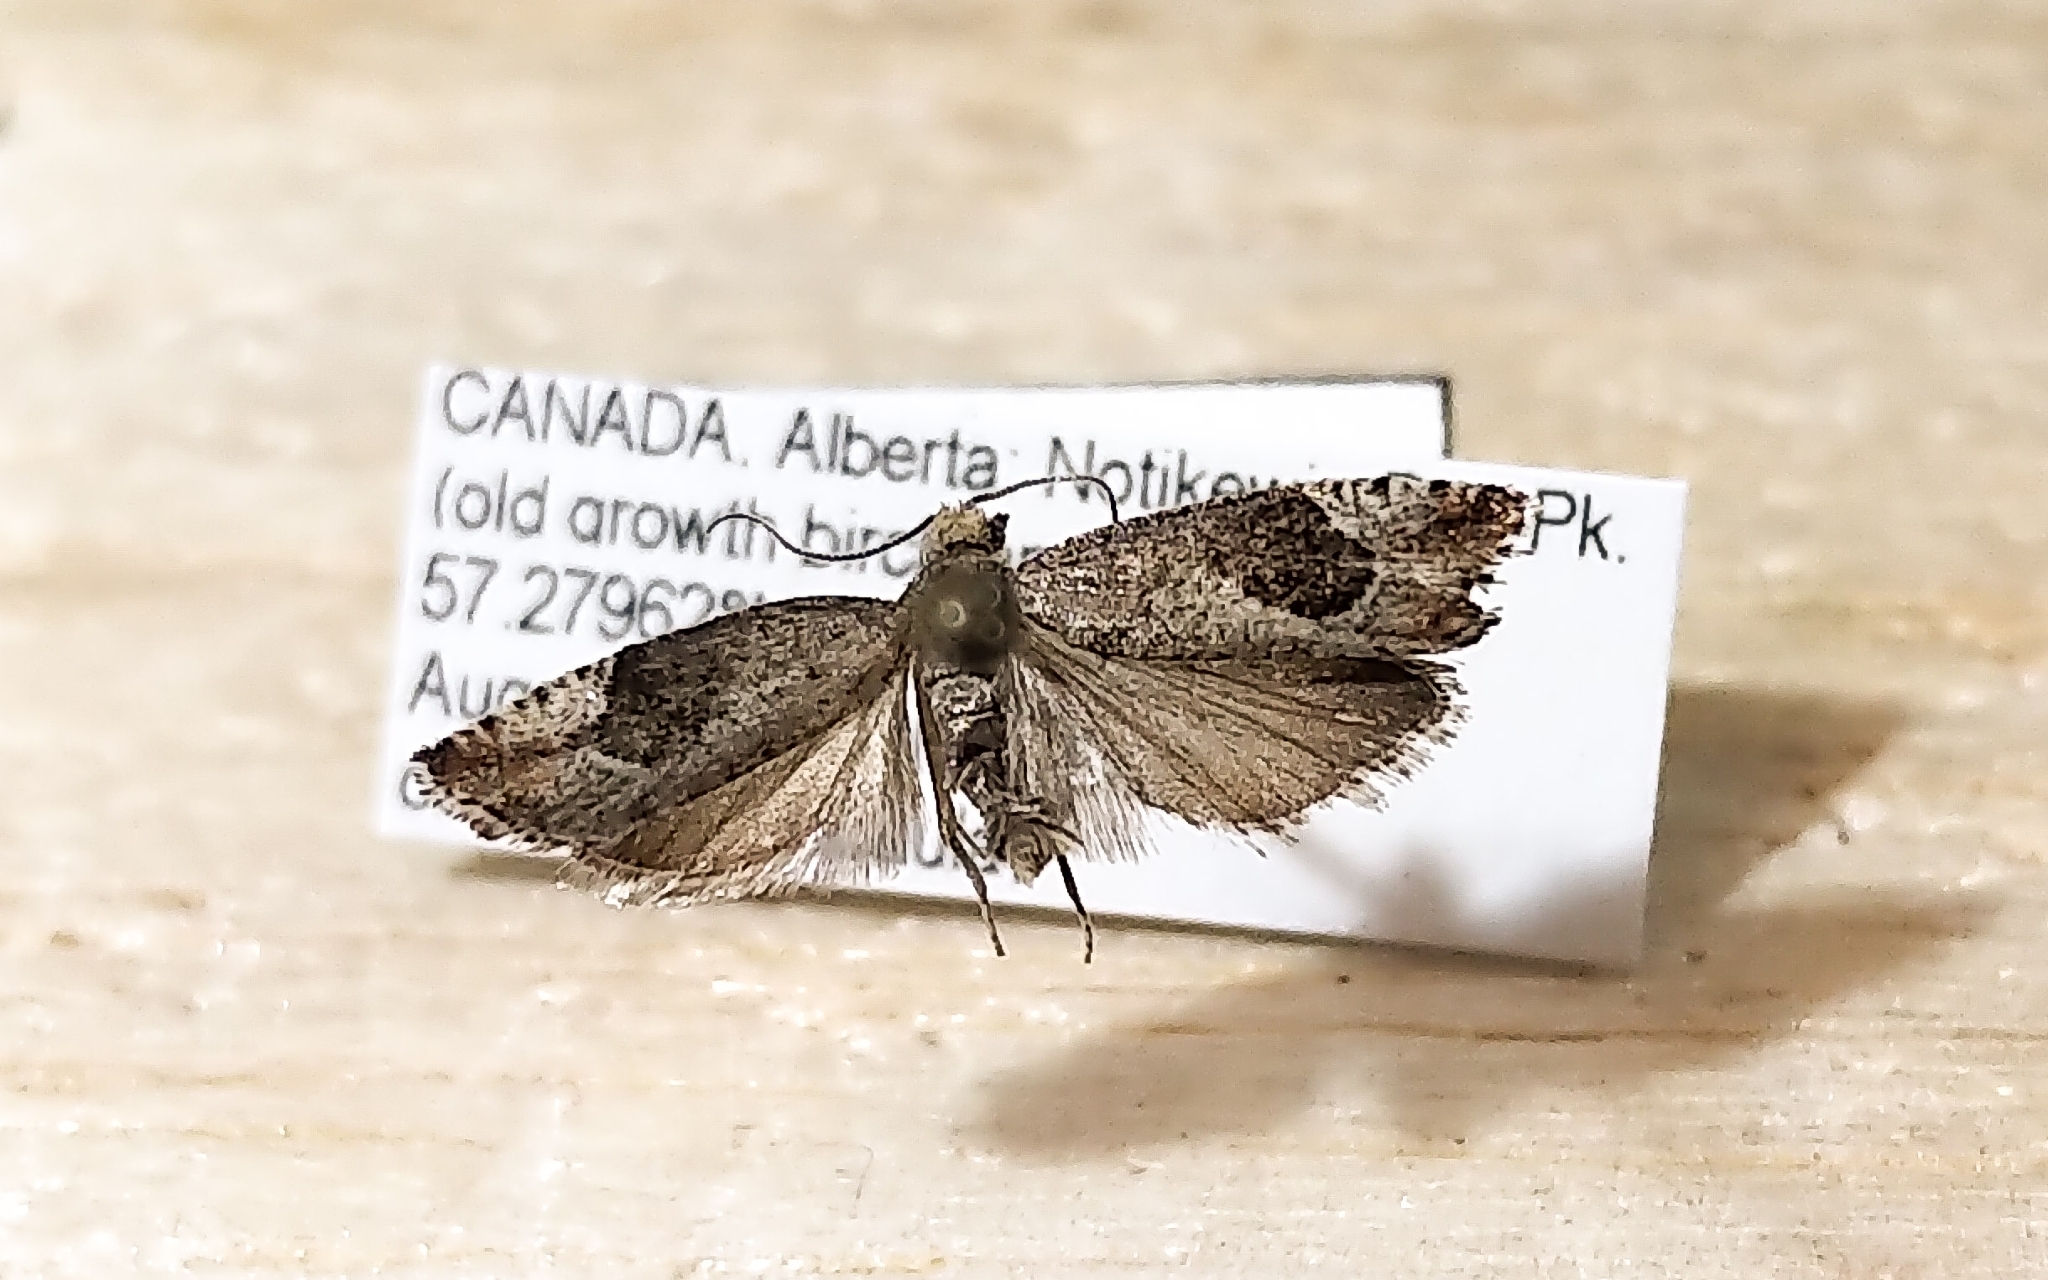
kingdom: Animalia
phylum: Arthropoda
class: Insecta
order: Lepidoptera
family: Tortricidae
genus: Epinotia
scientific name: Epinotia medioplagata
